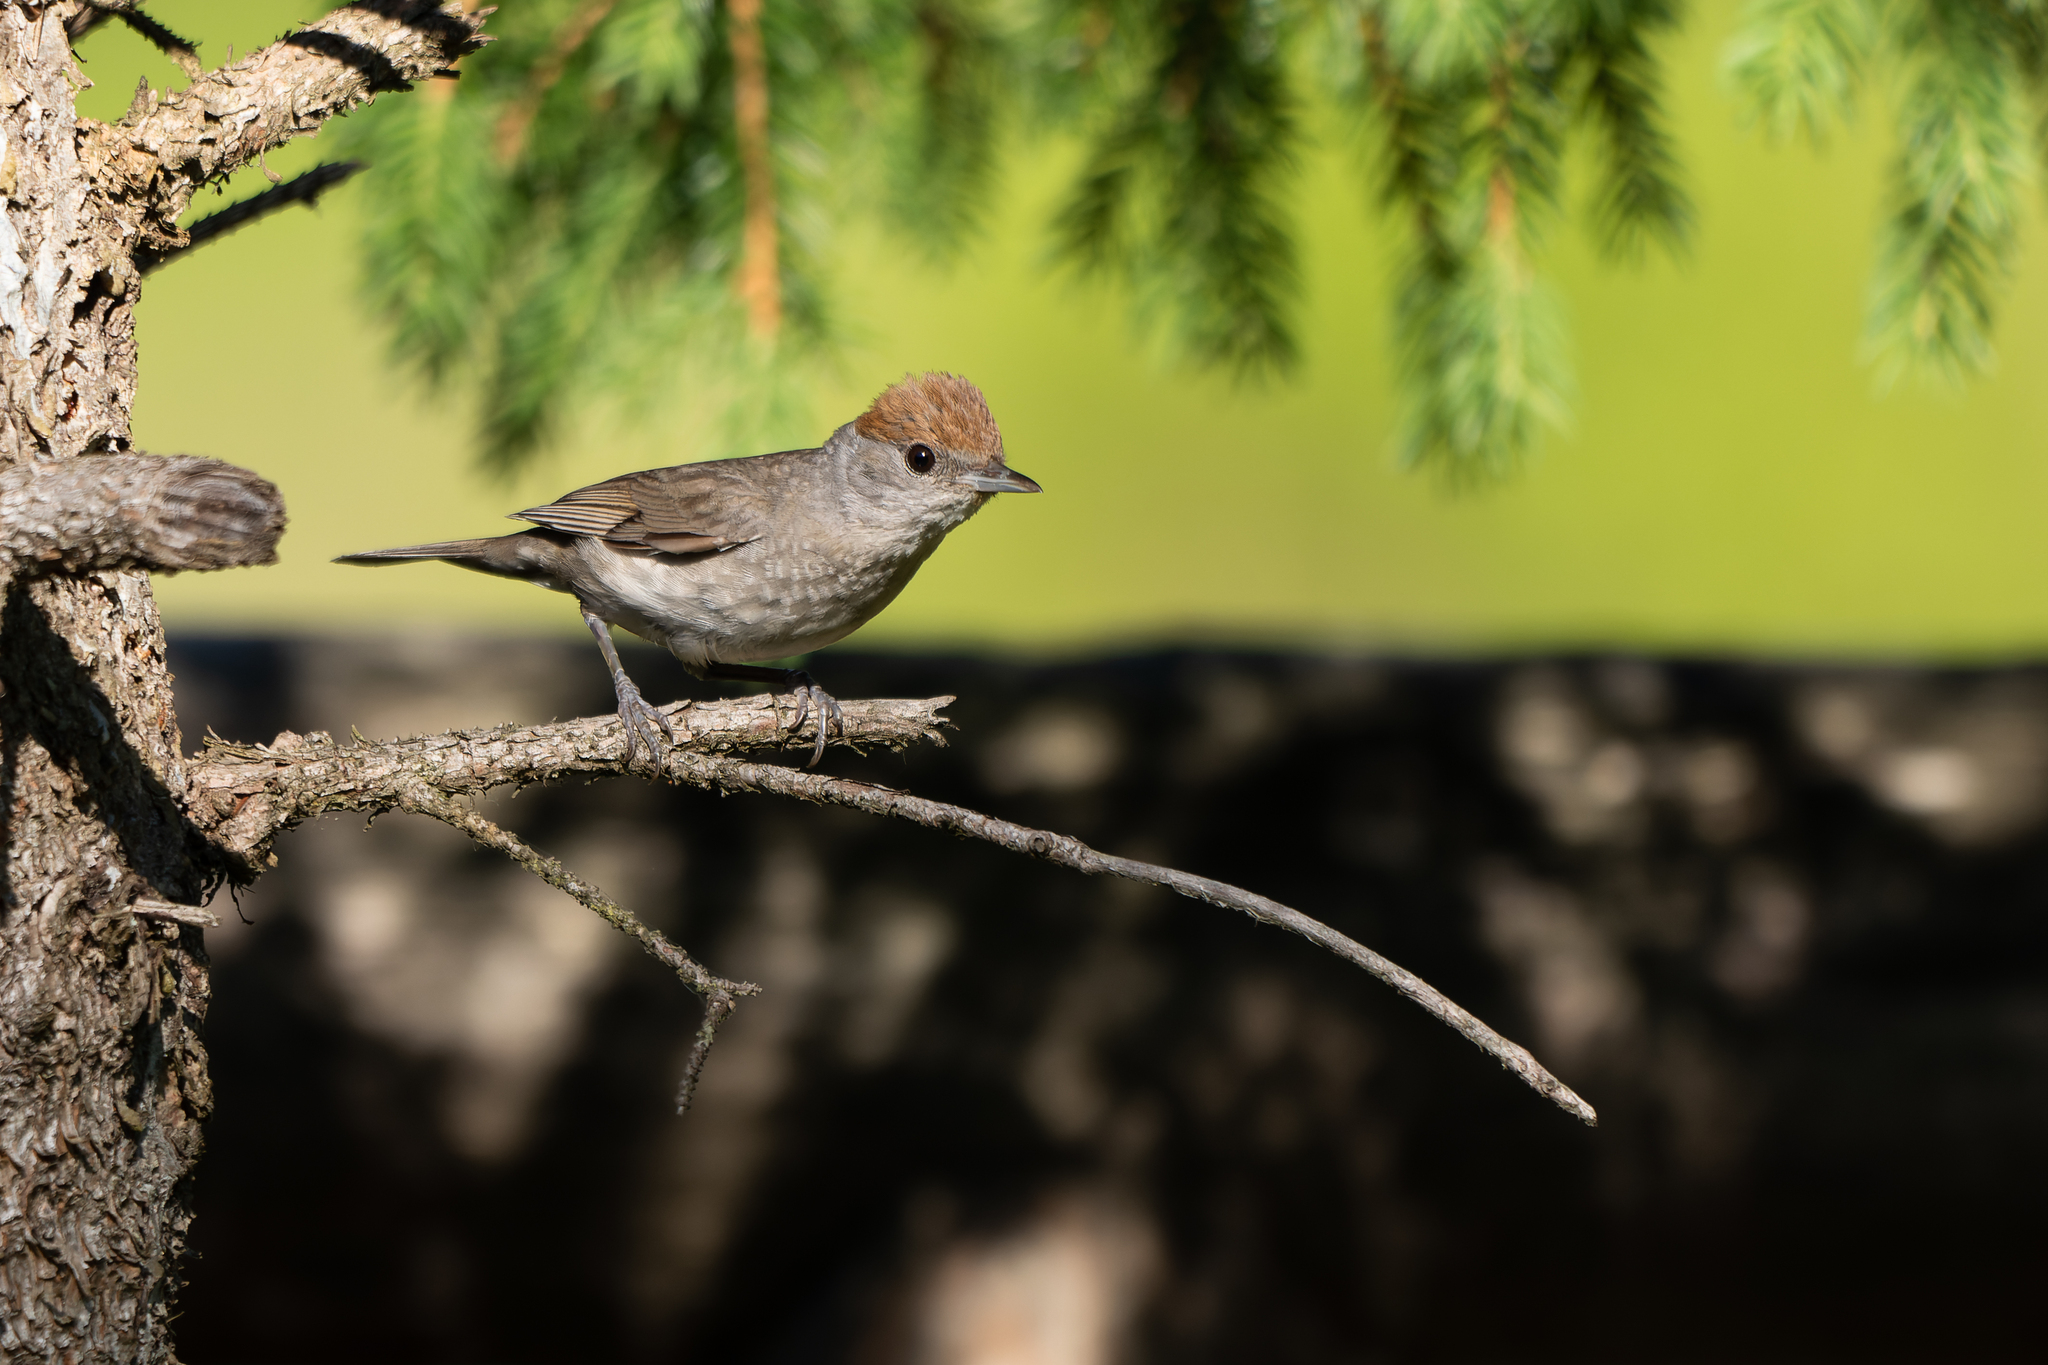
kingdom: Animalia
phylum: Chordata
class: Aves
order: Passeriformes
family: Sylviidae
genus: Sylvia
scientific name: Sylvia atricapilla
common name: Eurasian blackcap
